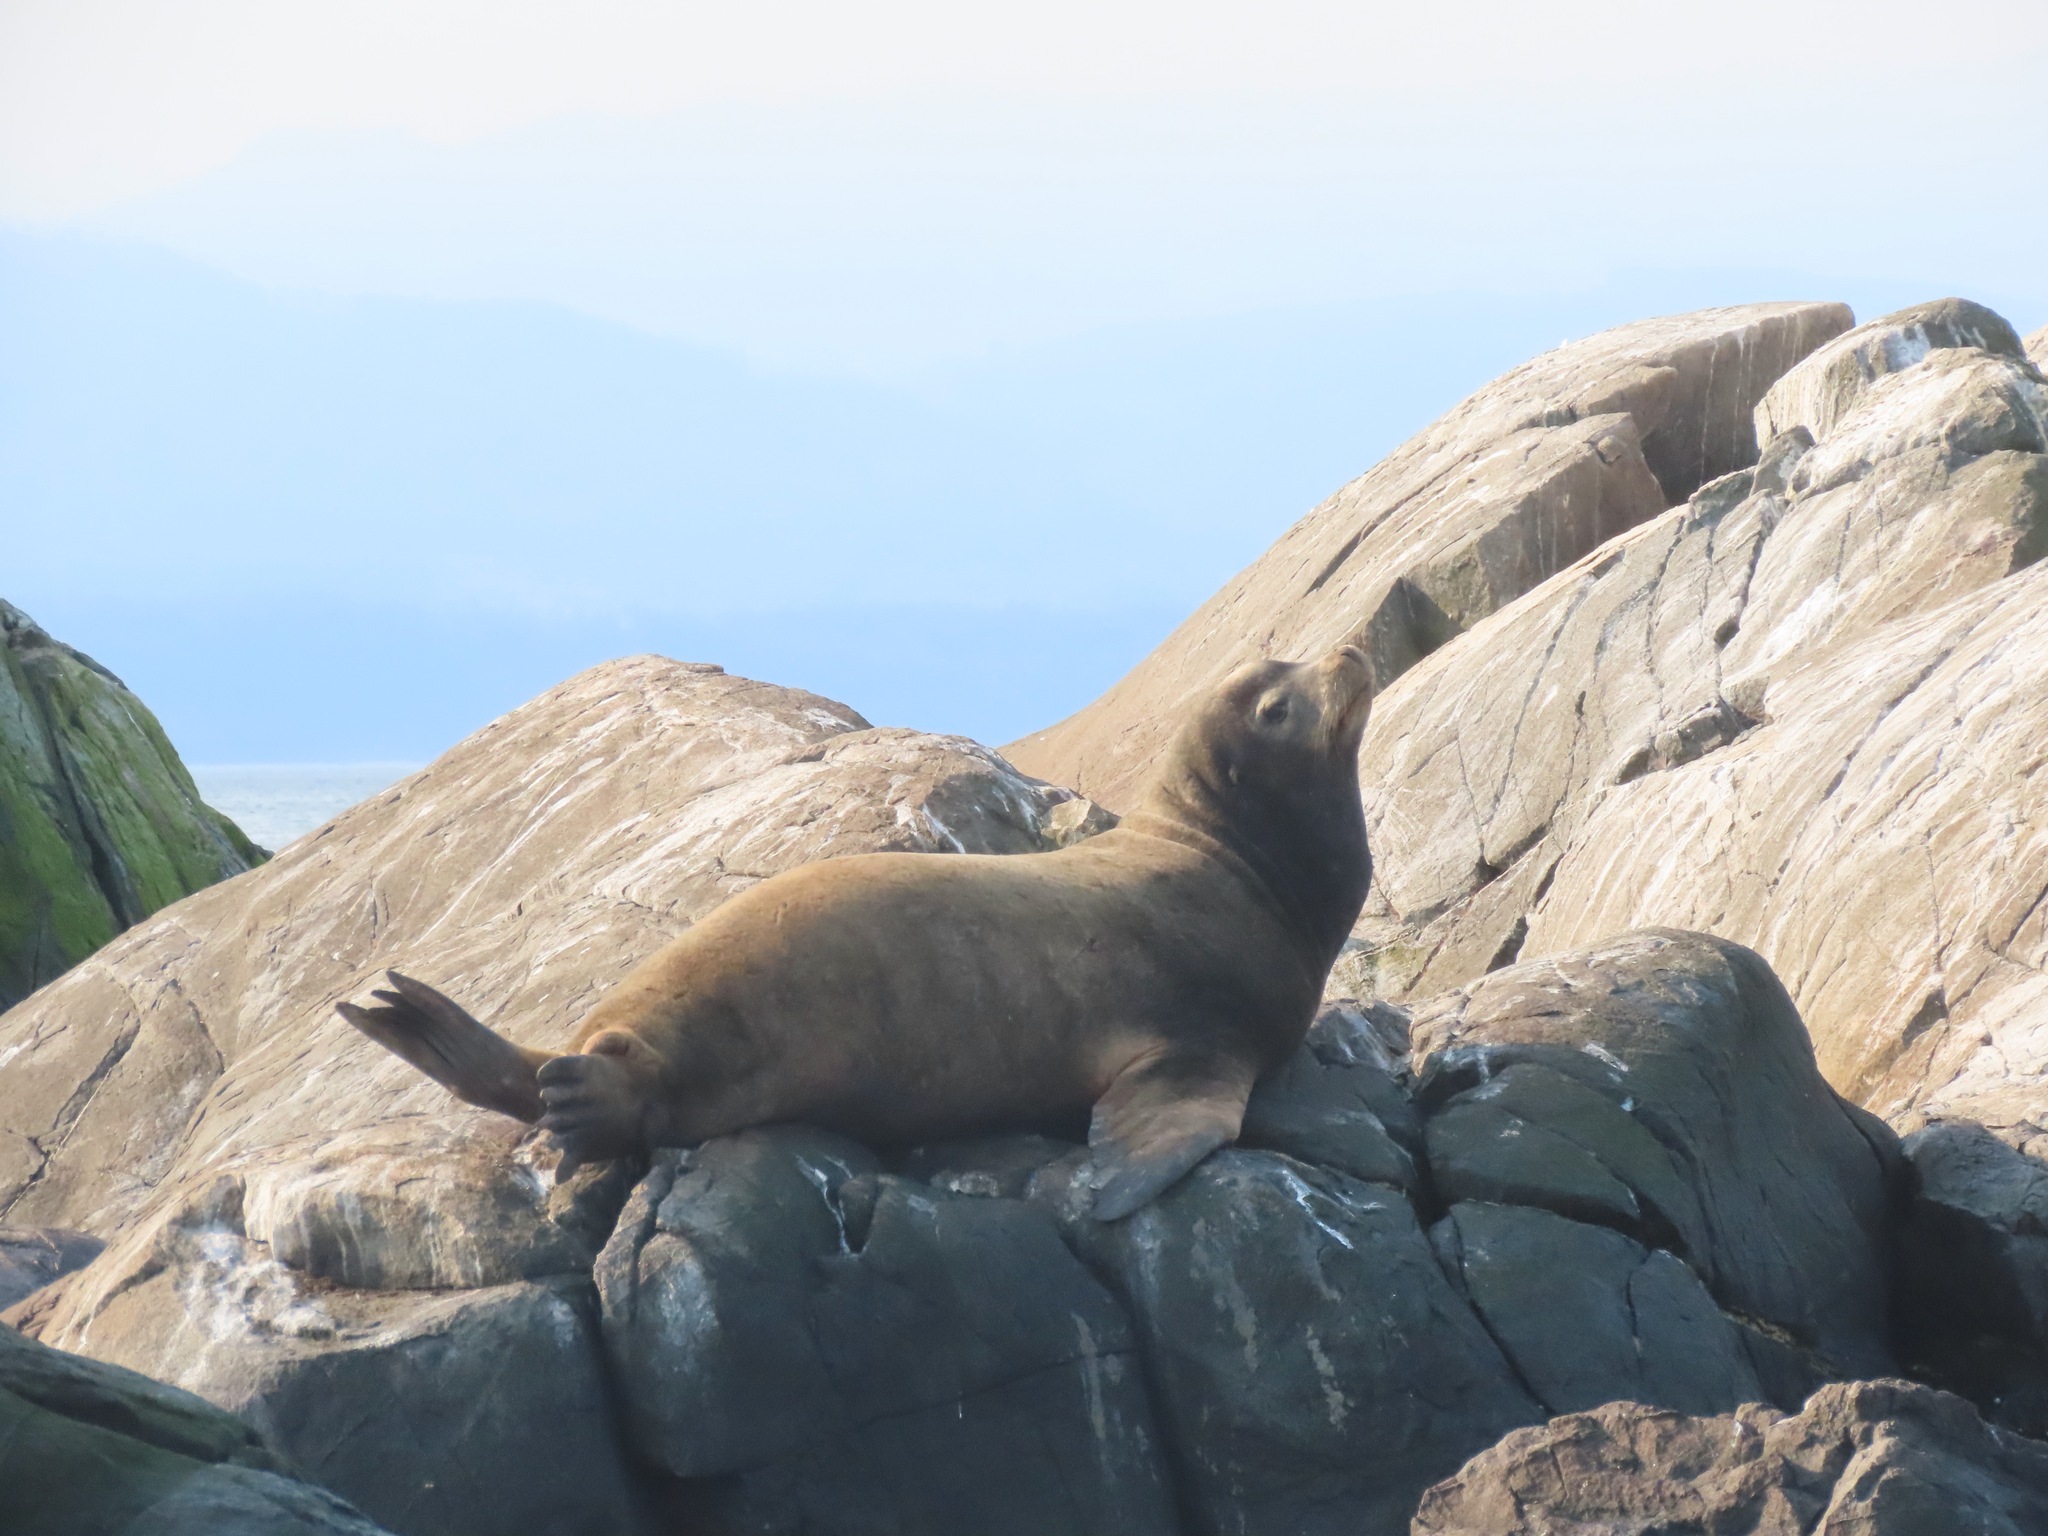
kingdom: Animalia
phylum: Chordata
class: Mammalia
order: Carnivora
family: Otariidae
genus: Zalophus
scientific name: Zalophus californianus
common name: California sea lion
